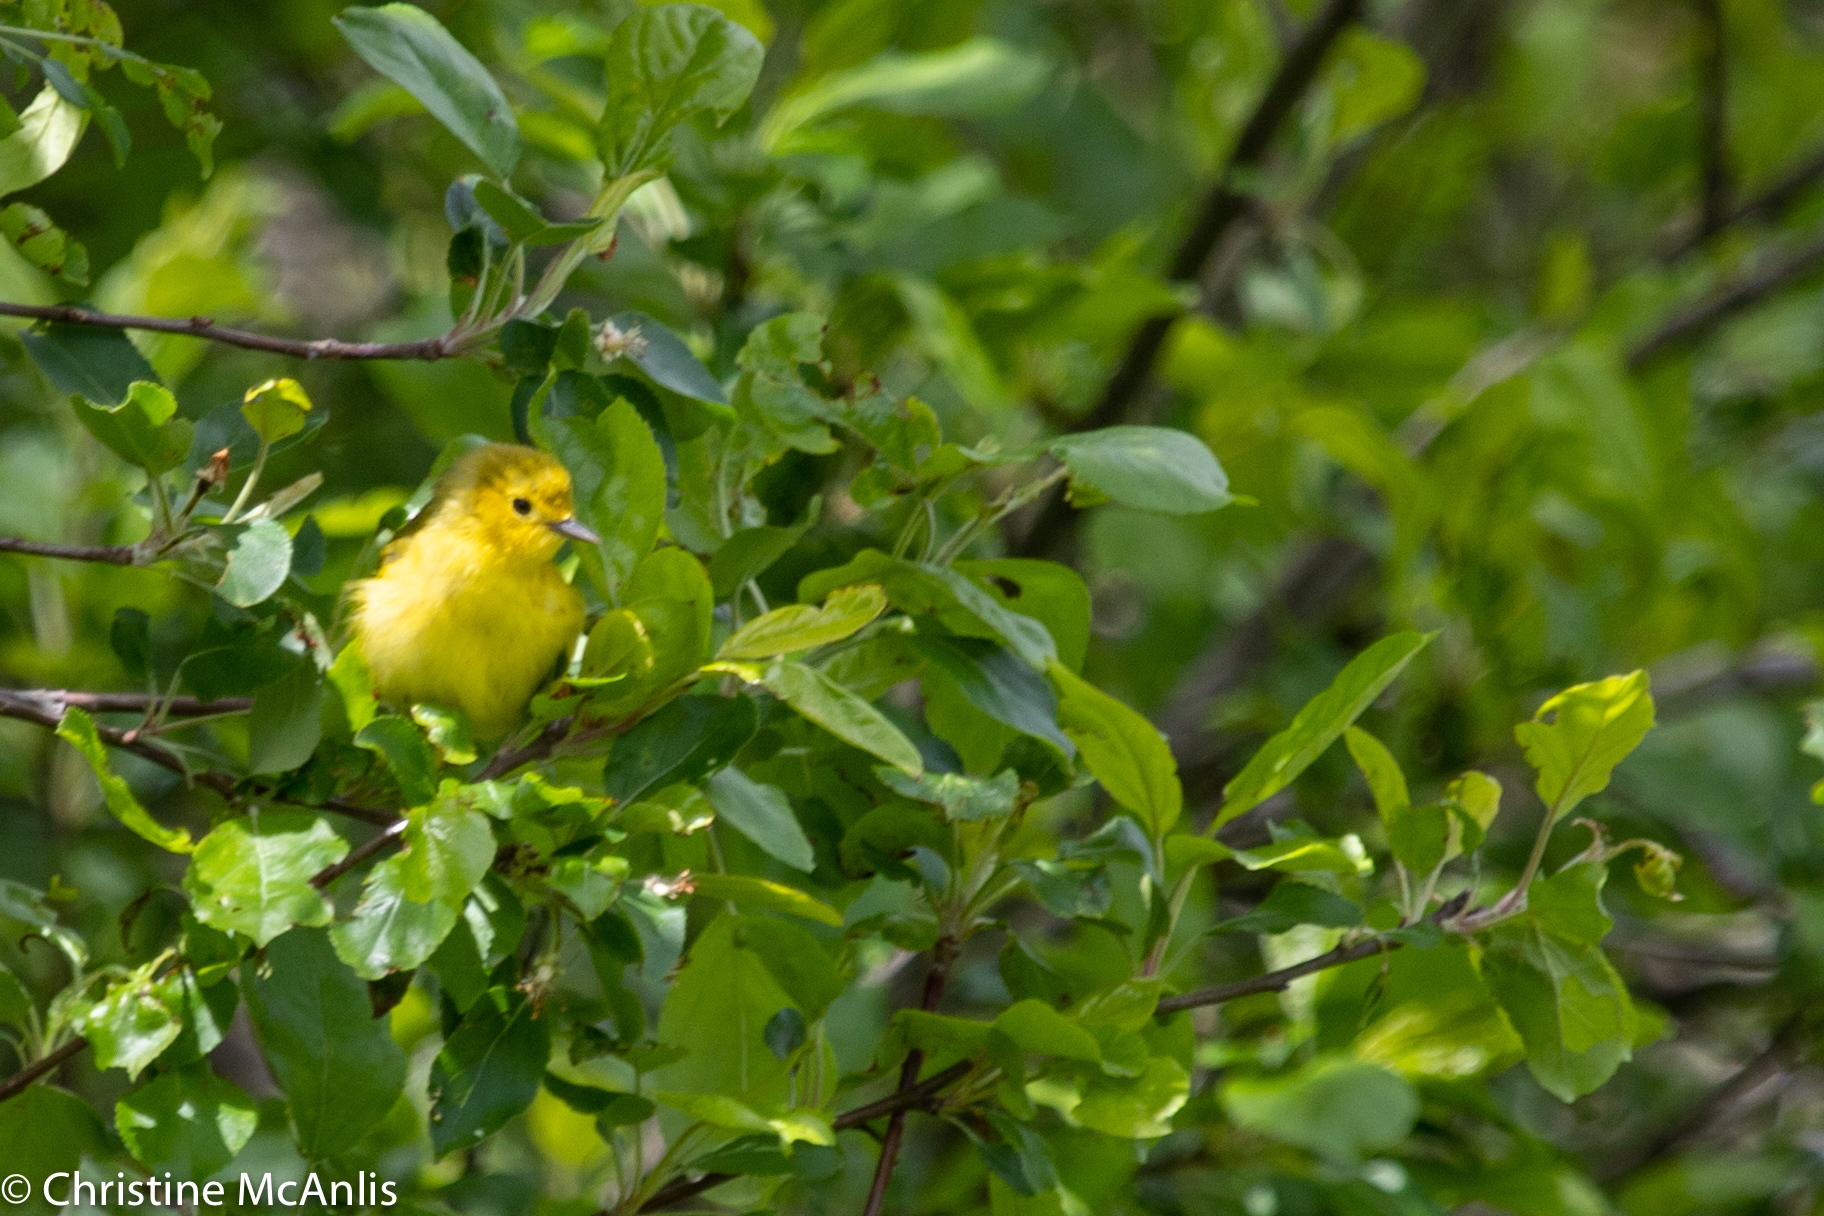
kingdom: Animalia
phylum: Chordata
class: Aves
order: Passeriformes
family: Parulidae
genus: Setophaga
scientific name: Setophaga petechia
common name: Yellow warbler
